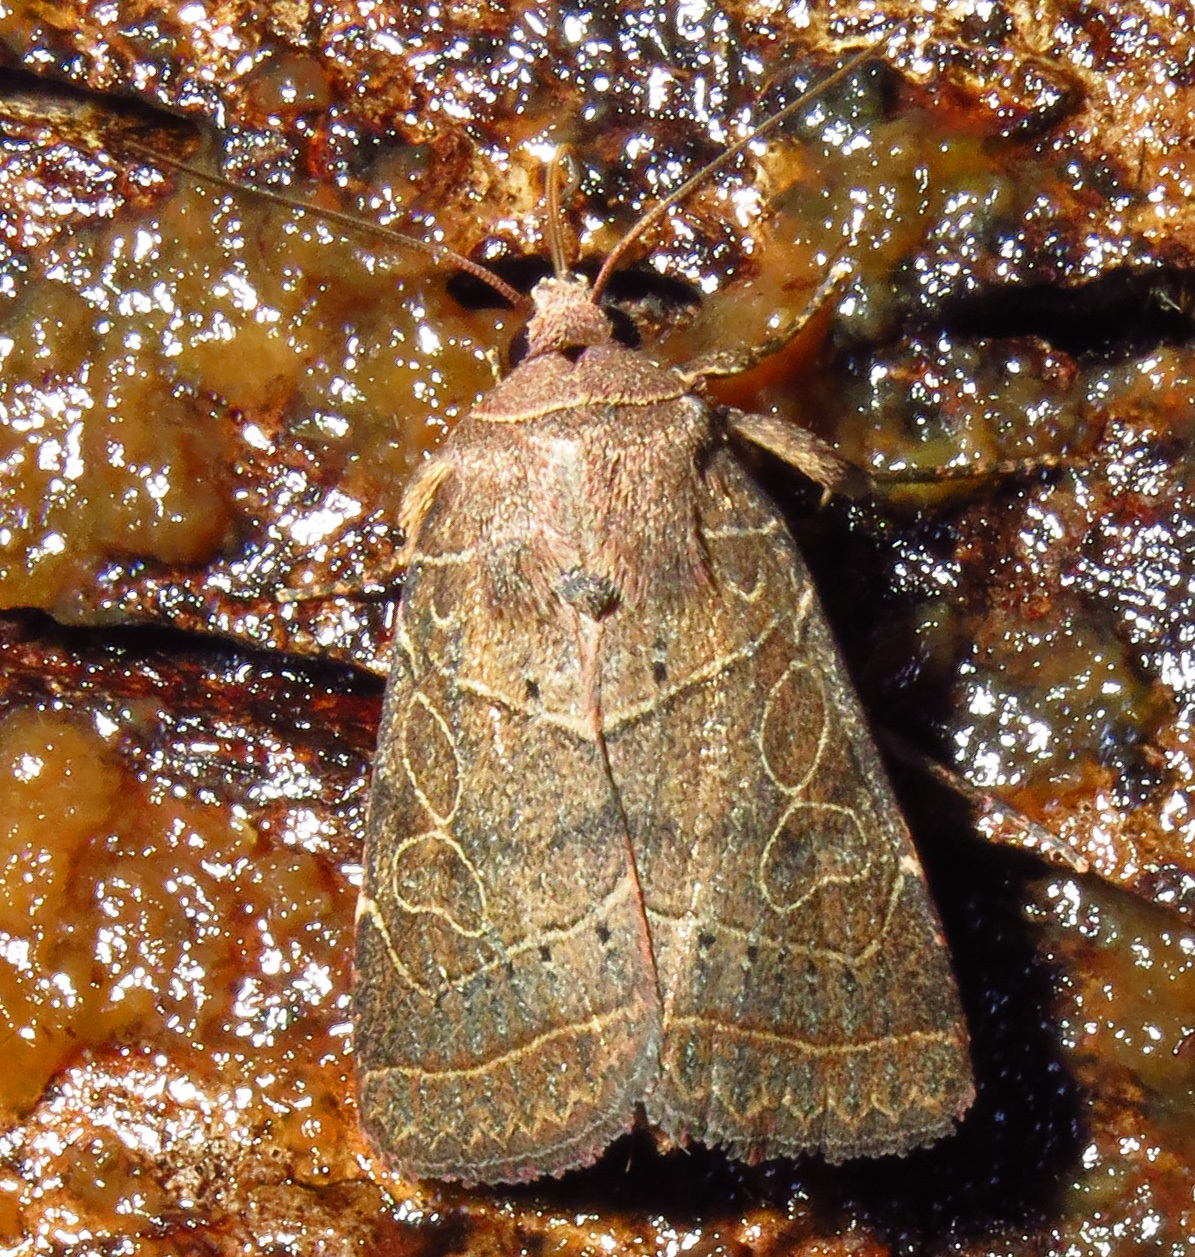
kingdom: Animalia
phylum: Arthropoda
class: Insecta
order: Lepidoptera
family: Noctuidae
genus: Orthodes
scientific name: Orthodes majuscula
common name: Rustic quaker
